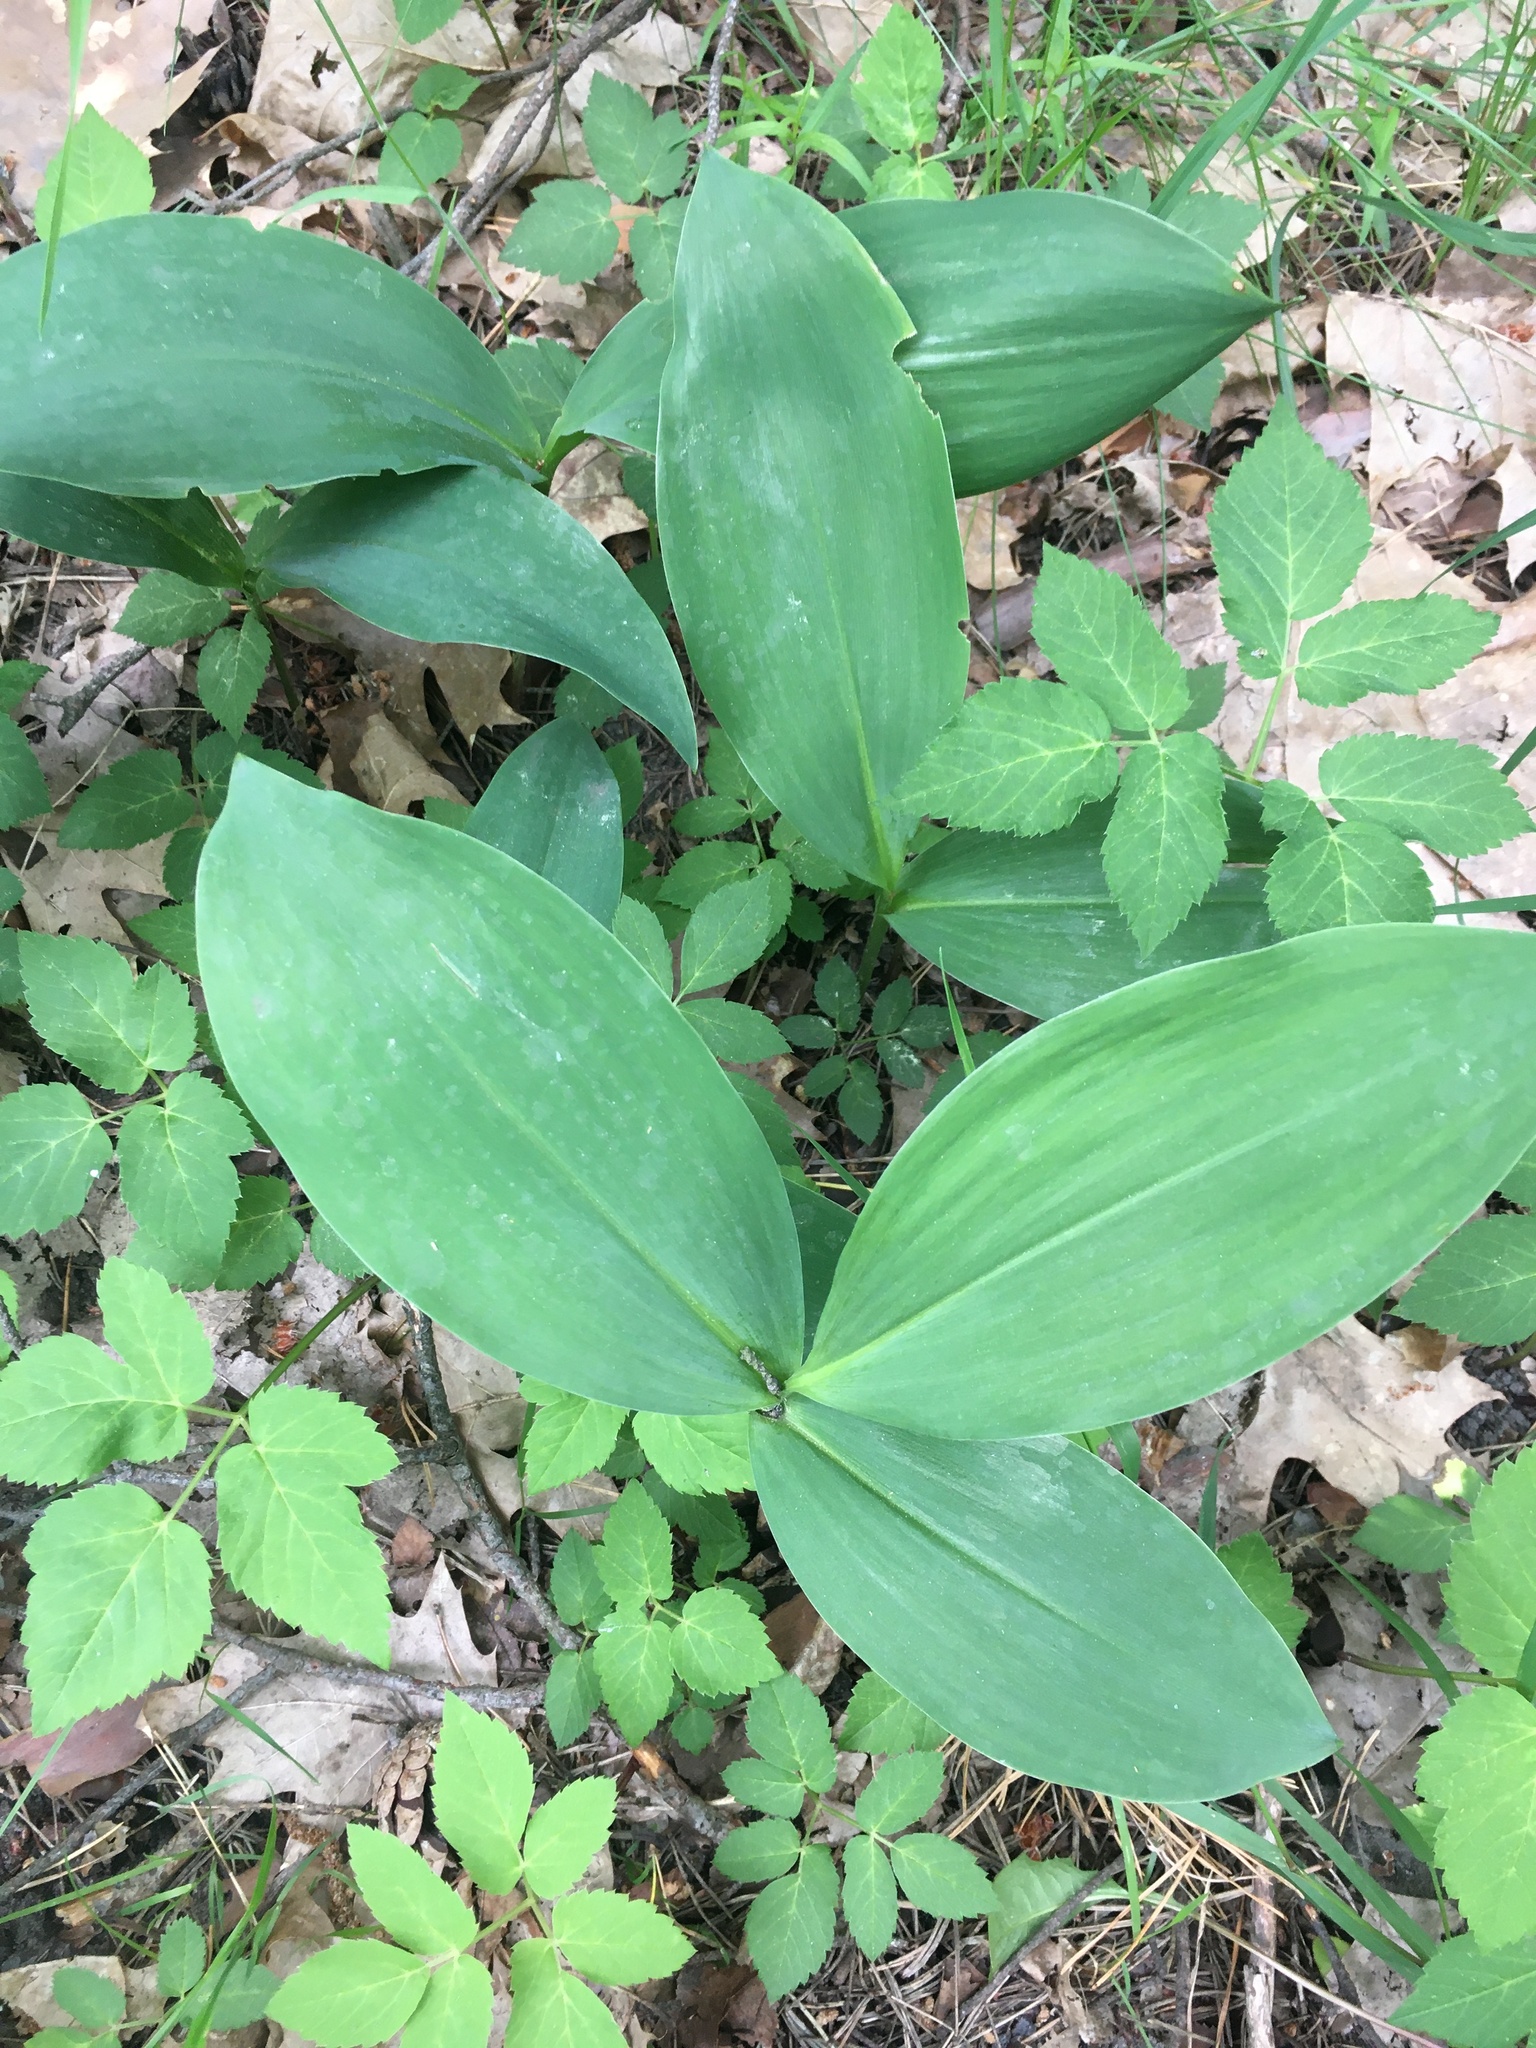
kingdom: Plantae
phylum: Tracheophyta
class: Liliopsida
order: Asparagales
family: Asparagaceae
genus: Convallaria
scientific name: Convallaria majalis
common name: Lily-of-the-valley
